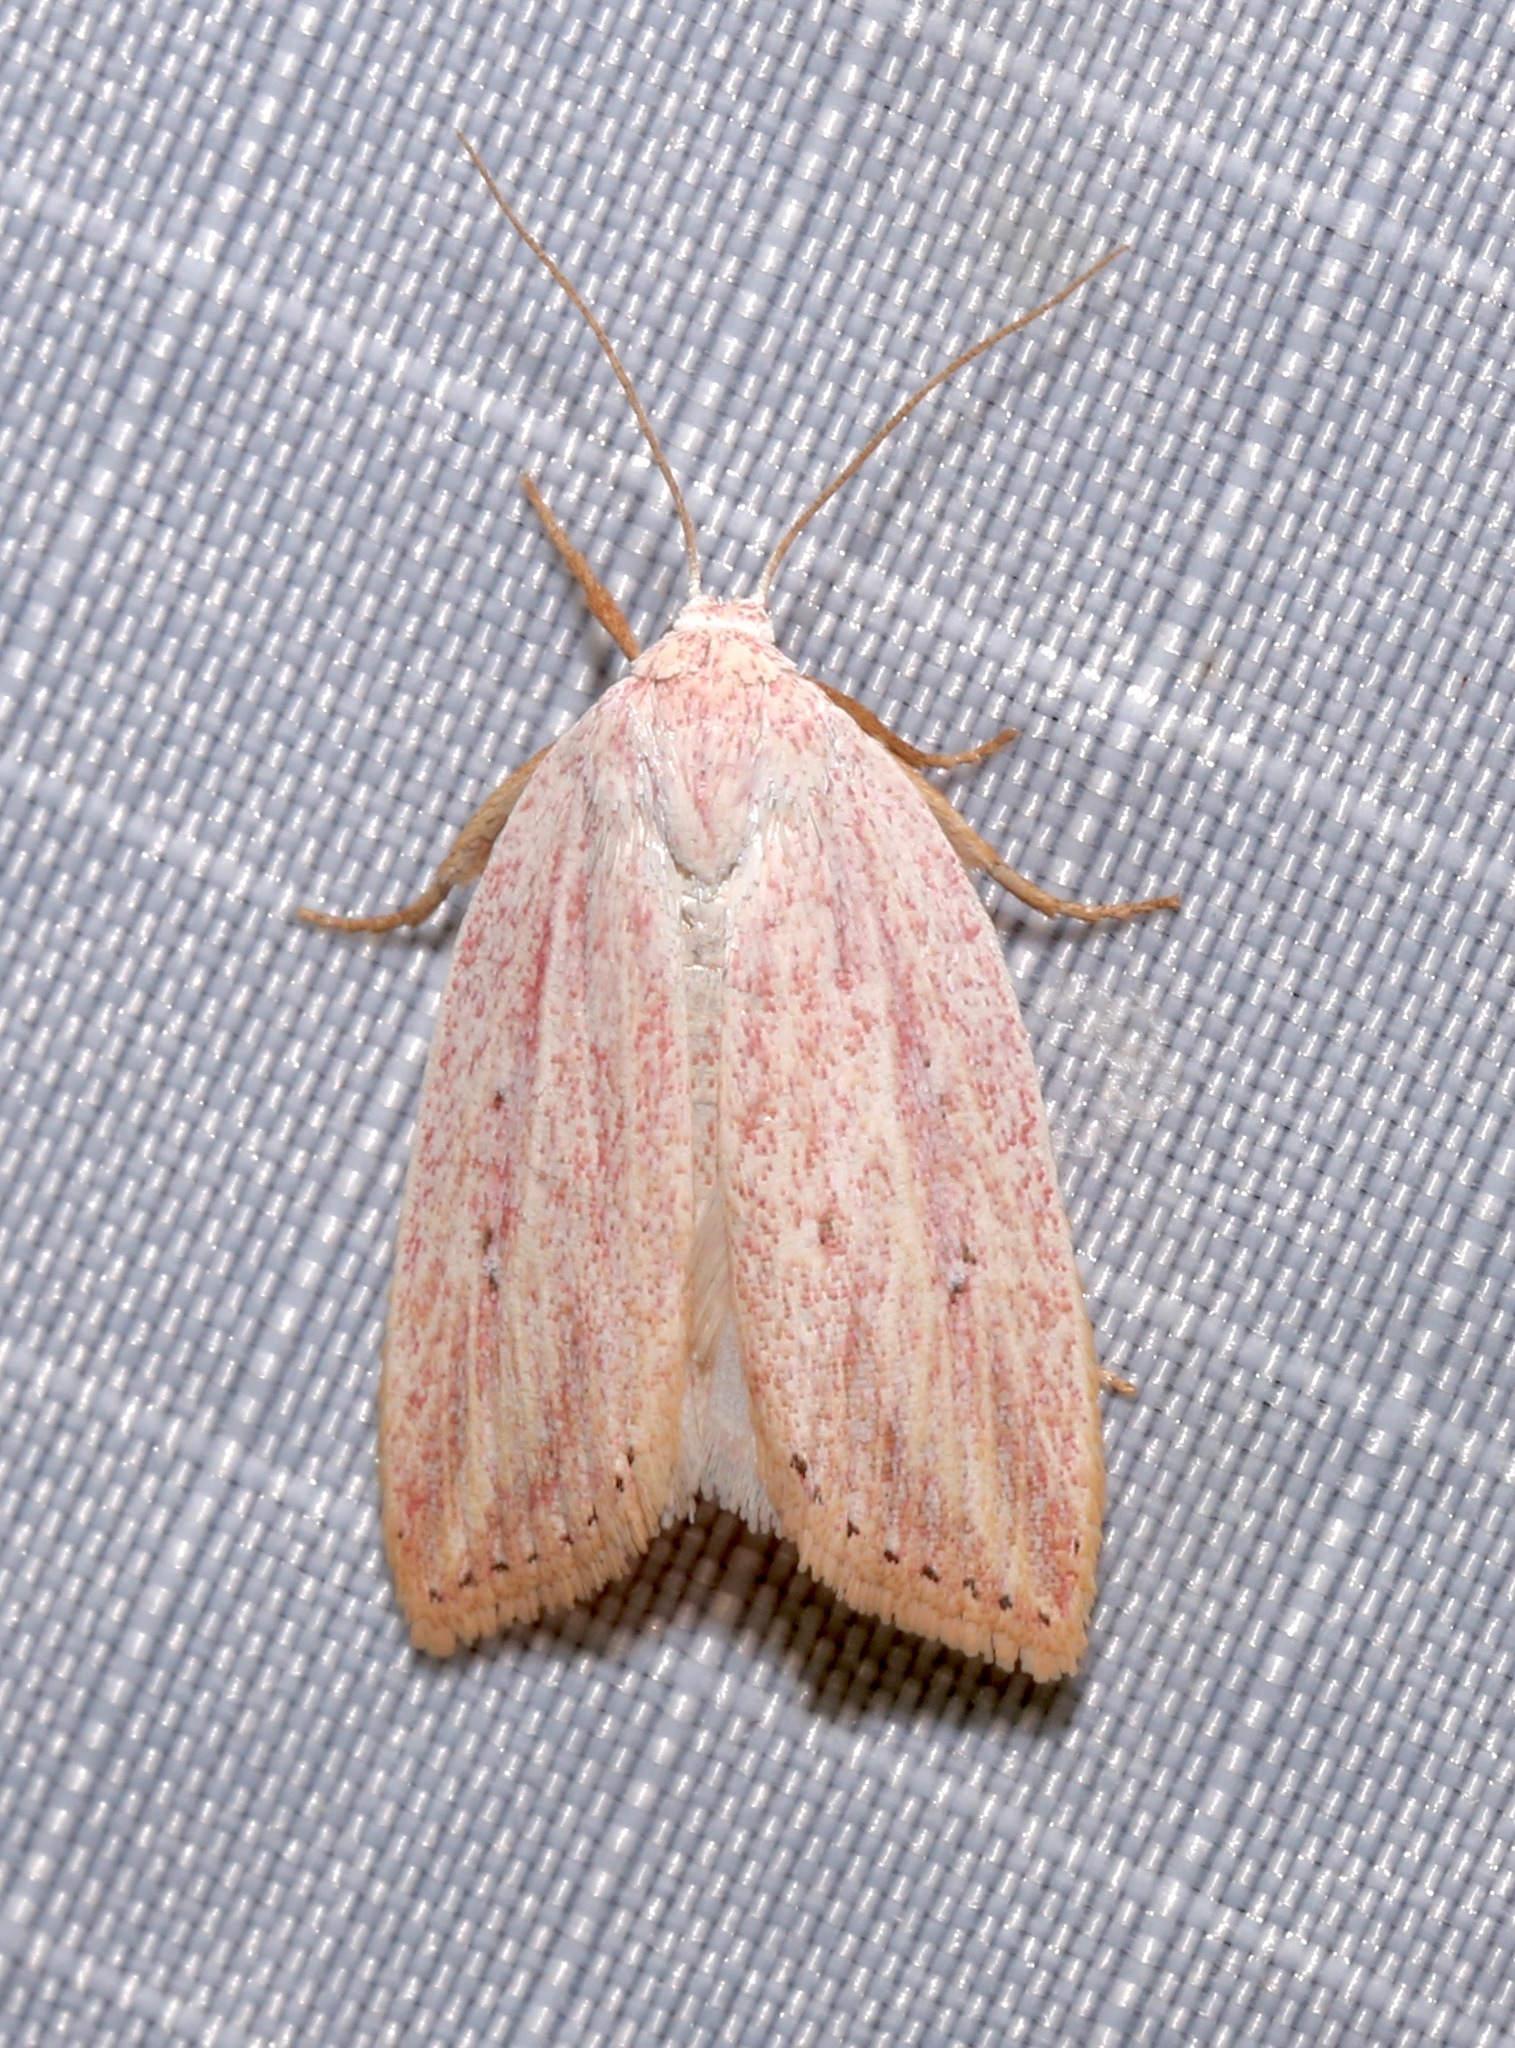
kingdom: Animalia
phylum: Arthropoda
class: Insecta
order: Lepidoptera
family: Noctuidae
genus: Amolita
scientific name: Amolita roseola
